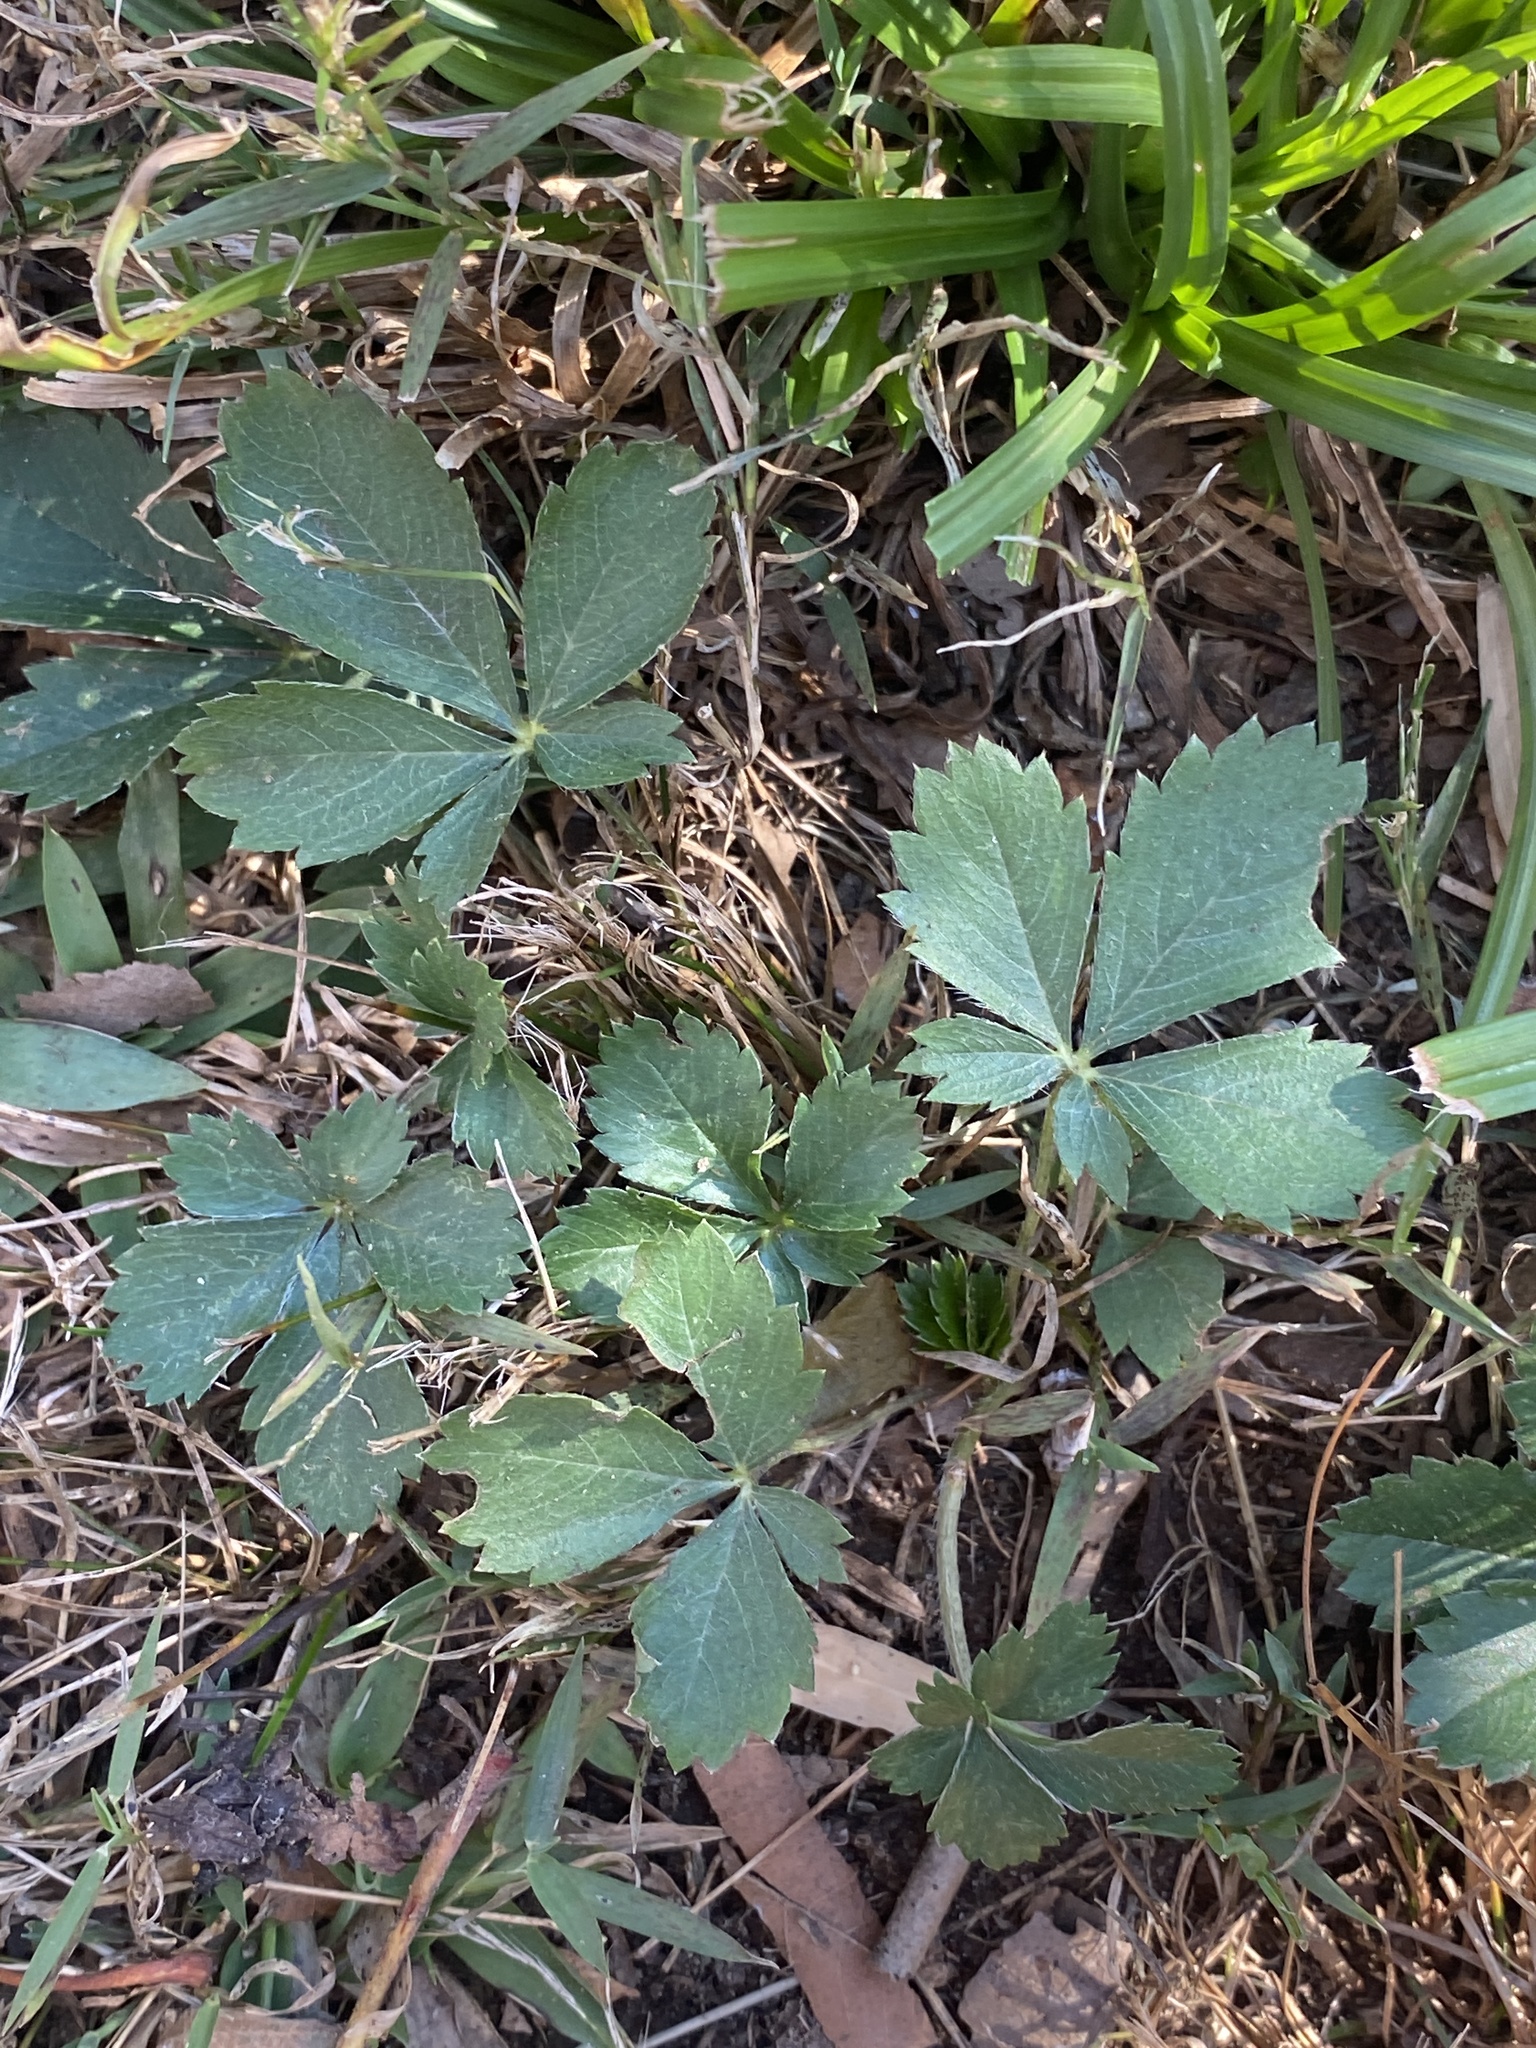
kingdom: Plantae
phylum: Tracheophyta
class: Magnoliopsida
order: Rosales
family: Rosaceae
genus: Potentilla
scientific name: Potentilla canadensis
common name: Canada cinquefoil
